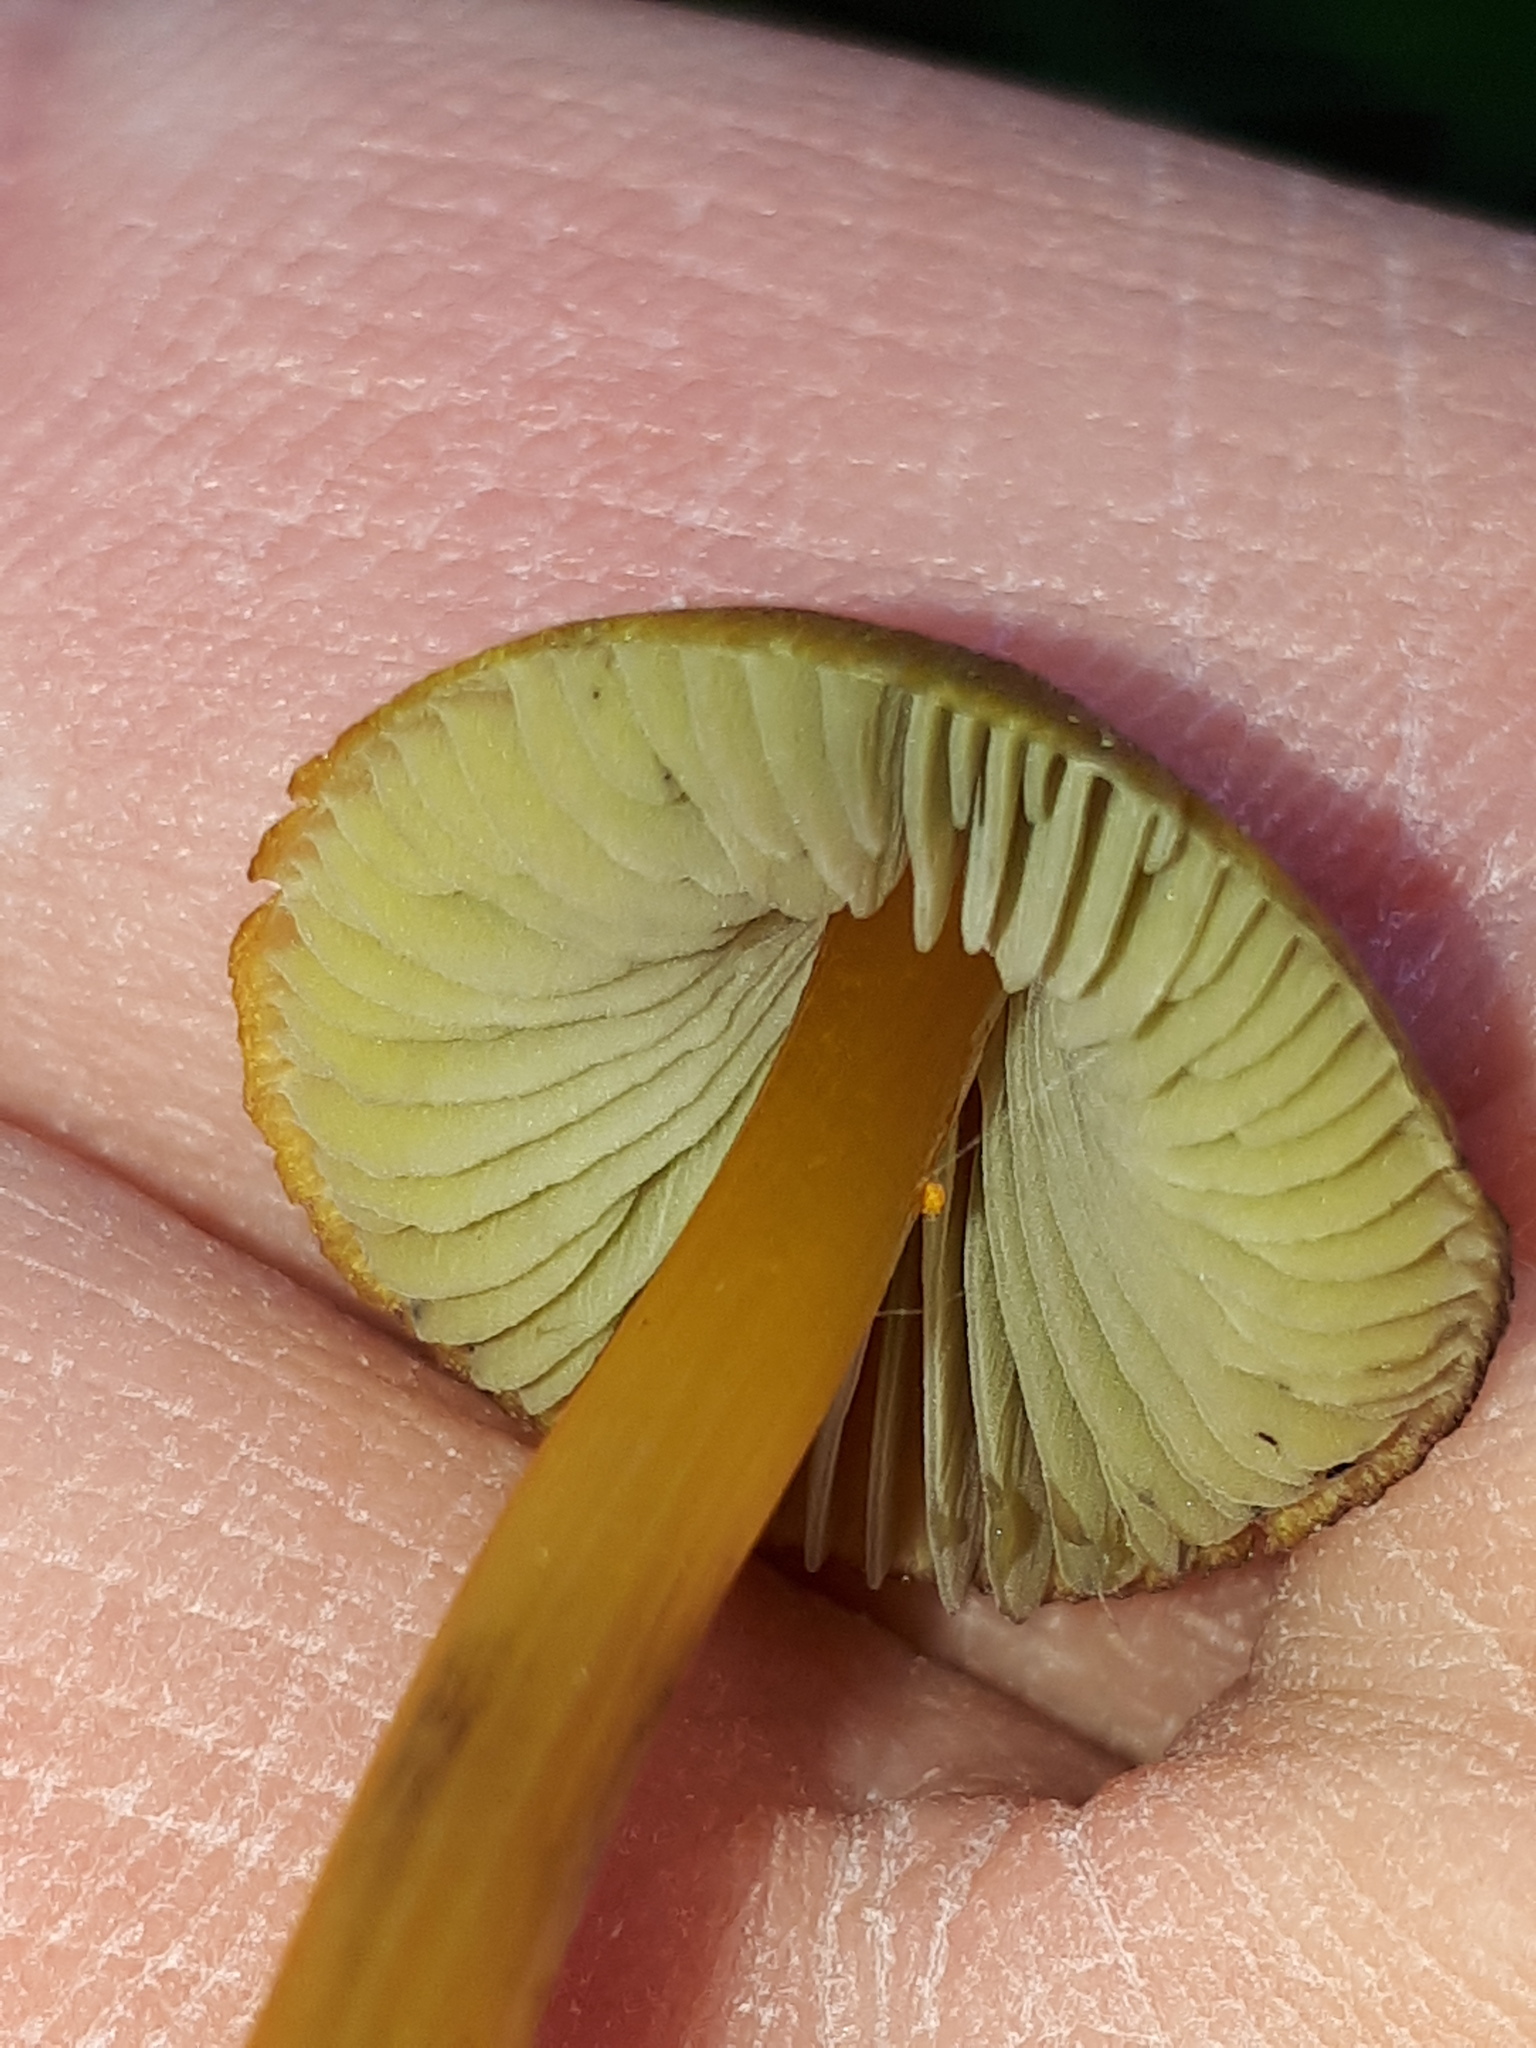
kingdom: Fungi
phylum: Basidiomycota
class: Agaricomycetes
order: Agaricales
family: Hygrophoraceae
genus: Hygrocybe
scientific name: Hygrocybe
